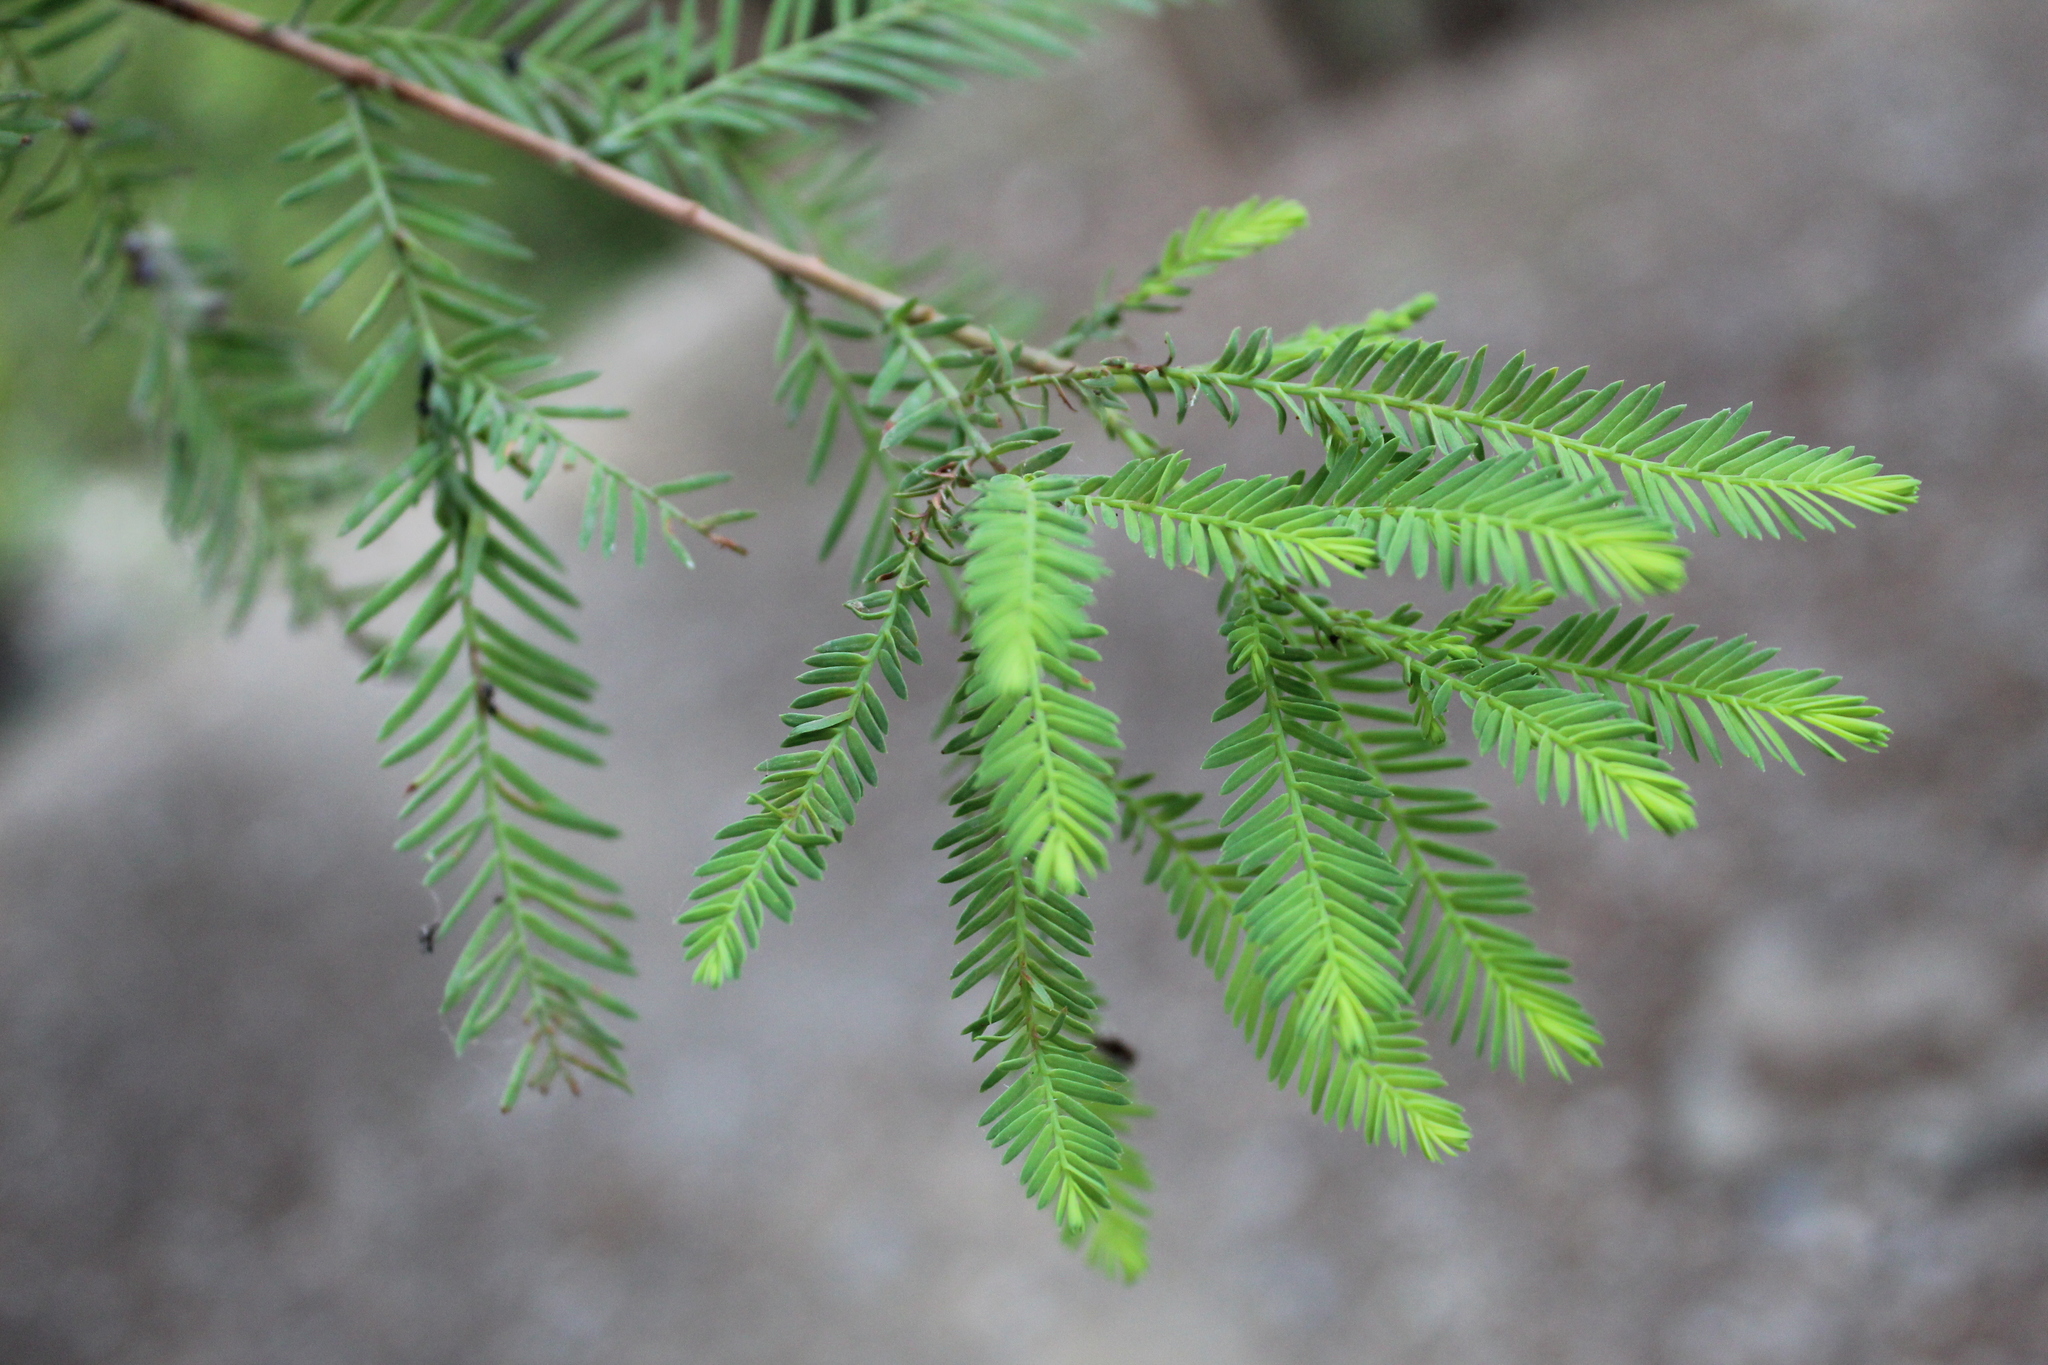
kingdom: Plantae
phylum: Tracheophyta
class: Pinopsida
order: Pinales
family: Cupressaceae
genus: Taxodium
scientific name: Taxodium mucronatum
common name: Montezume bald cypress
